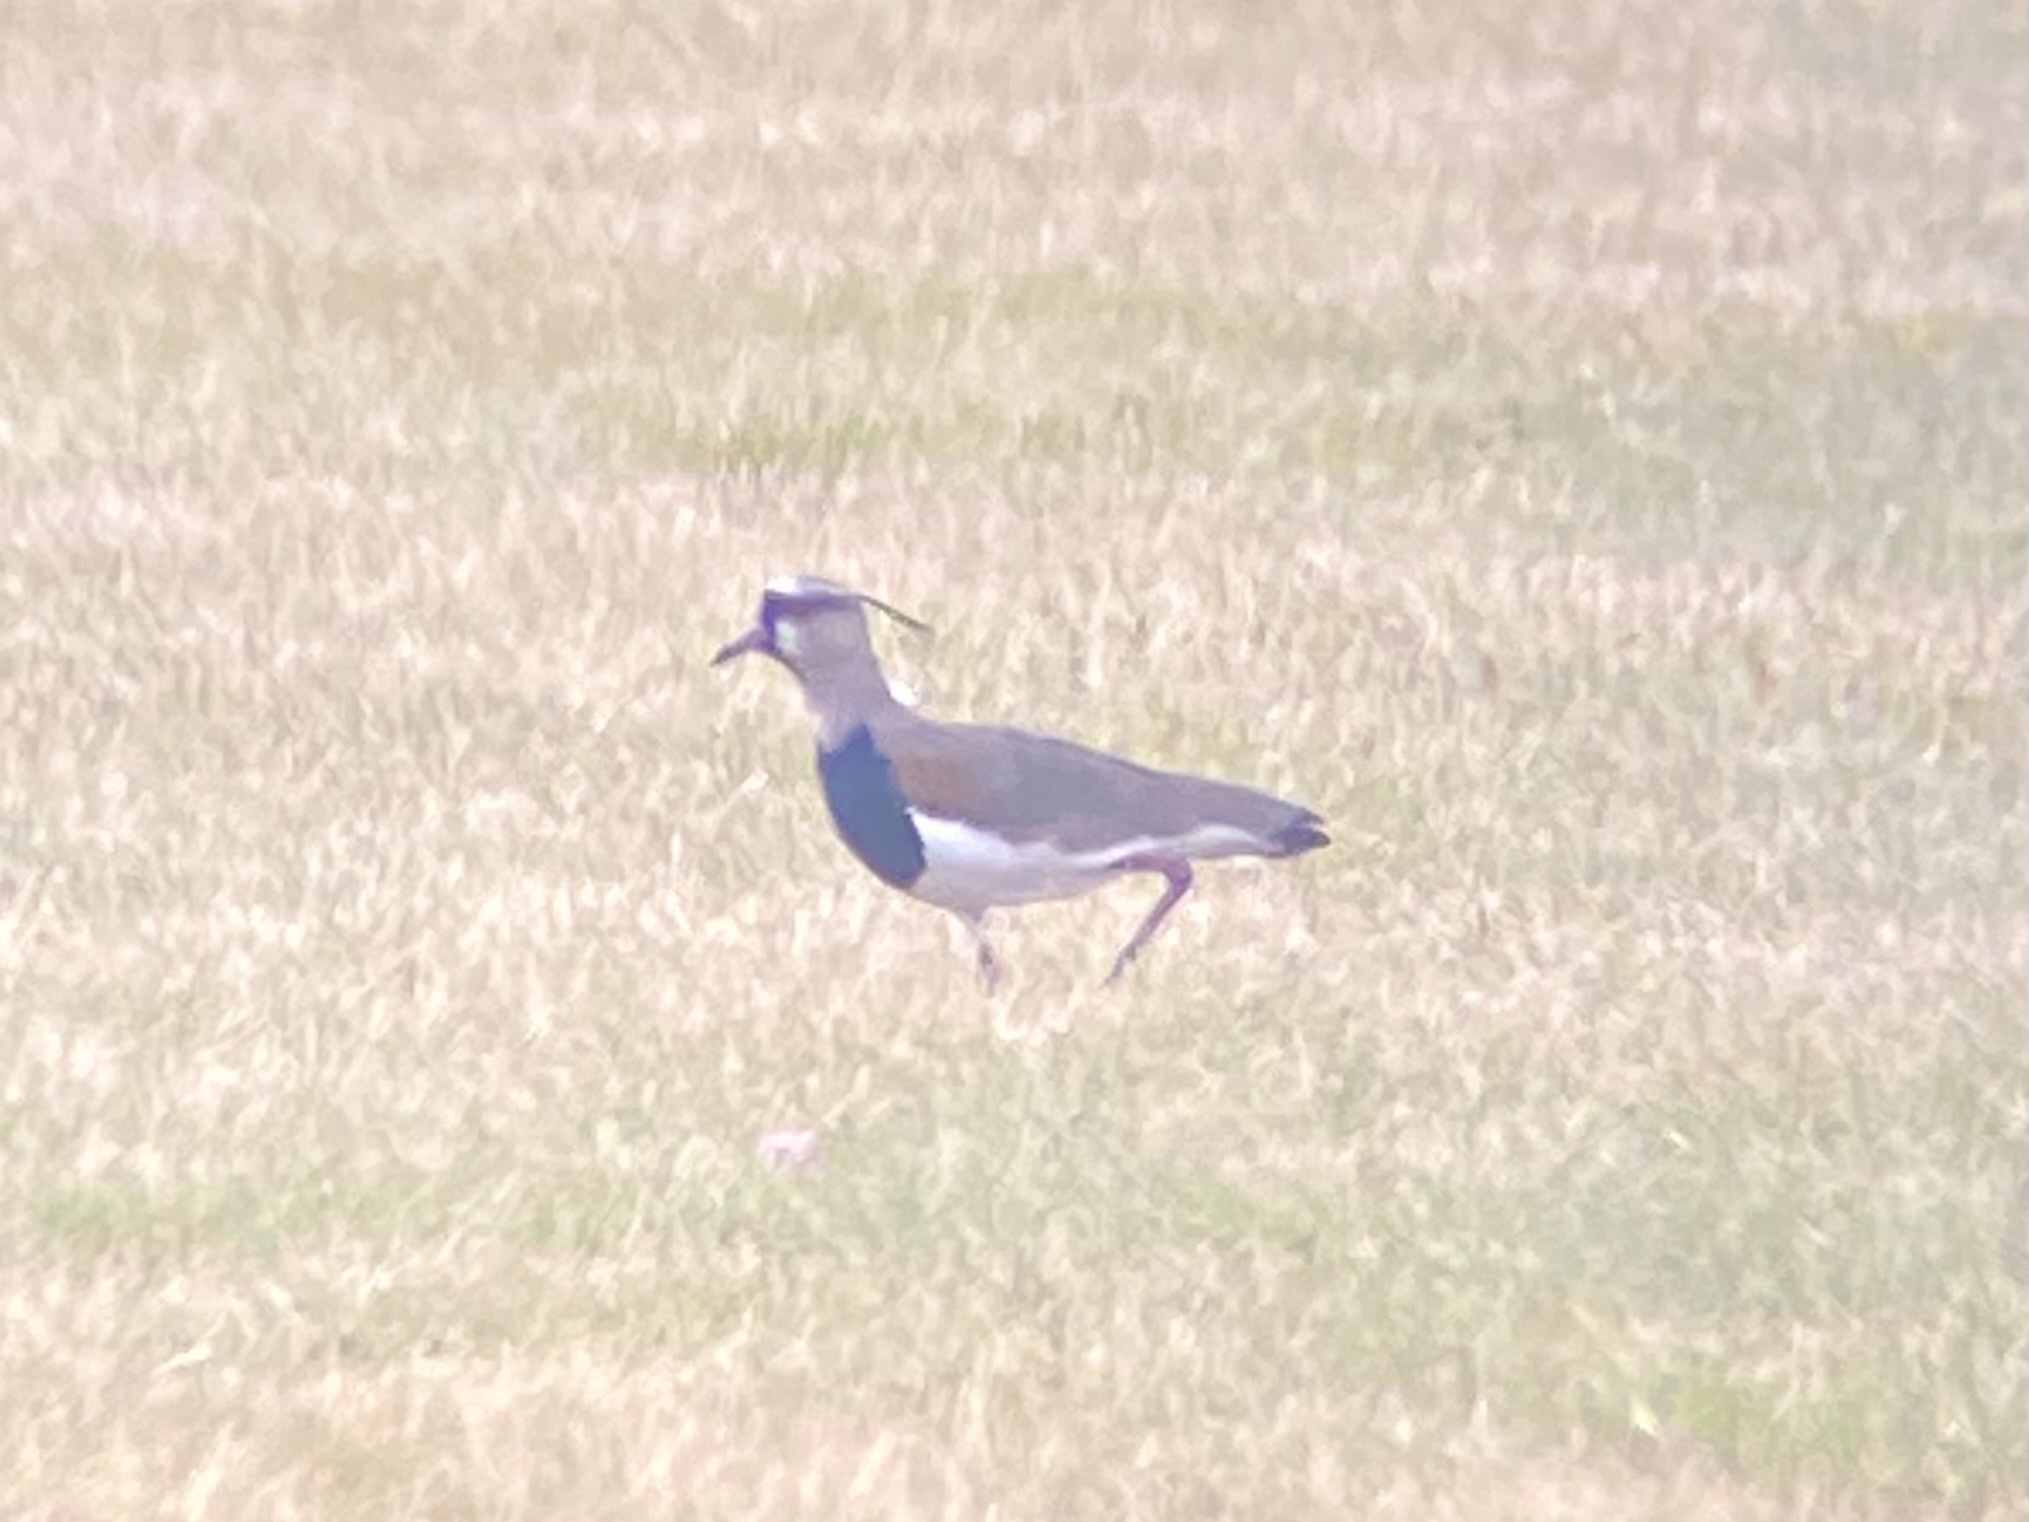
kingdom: Animalia
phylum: Chordata
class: Aves
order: Charadriiformes
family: Charadriidae
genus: Vanellus
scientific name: Vanellus chilensis
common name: Southern lapwing
